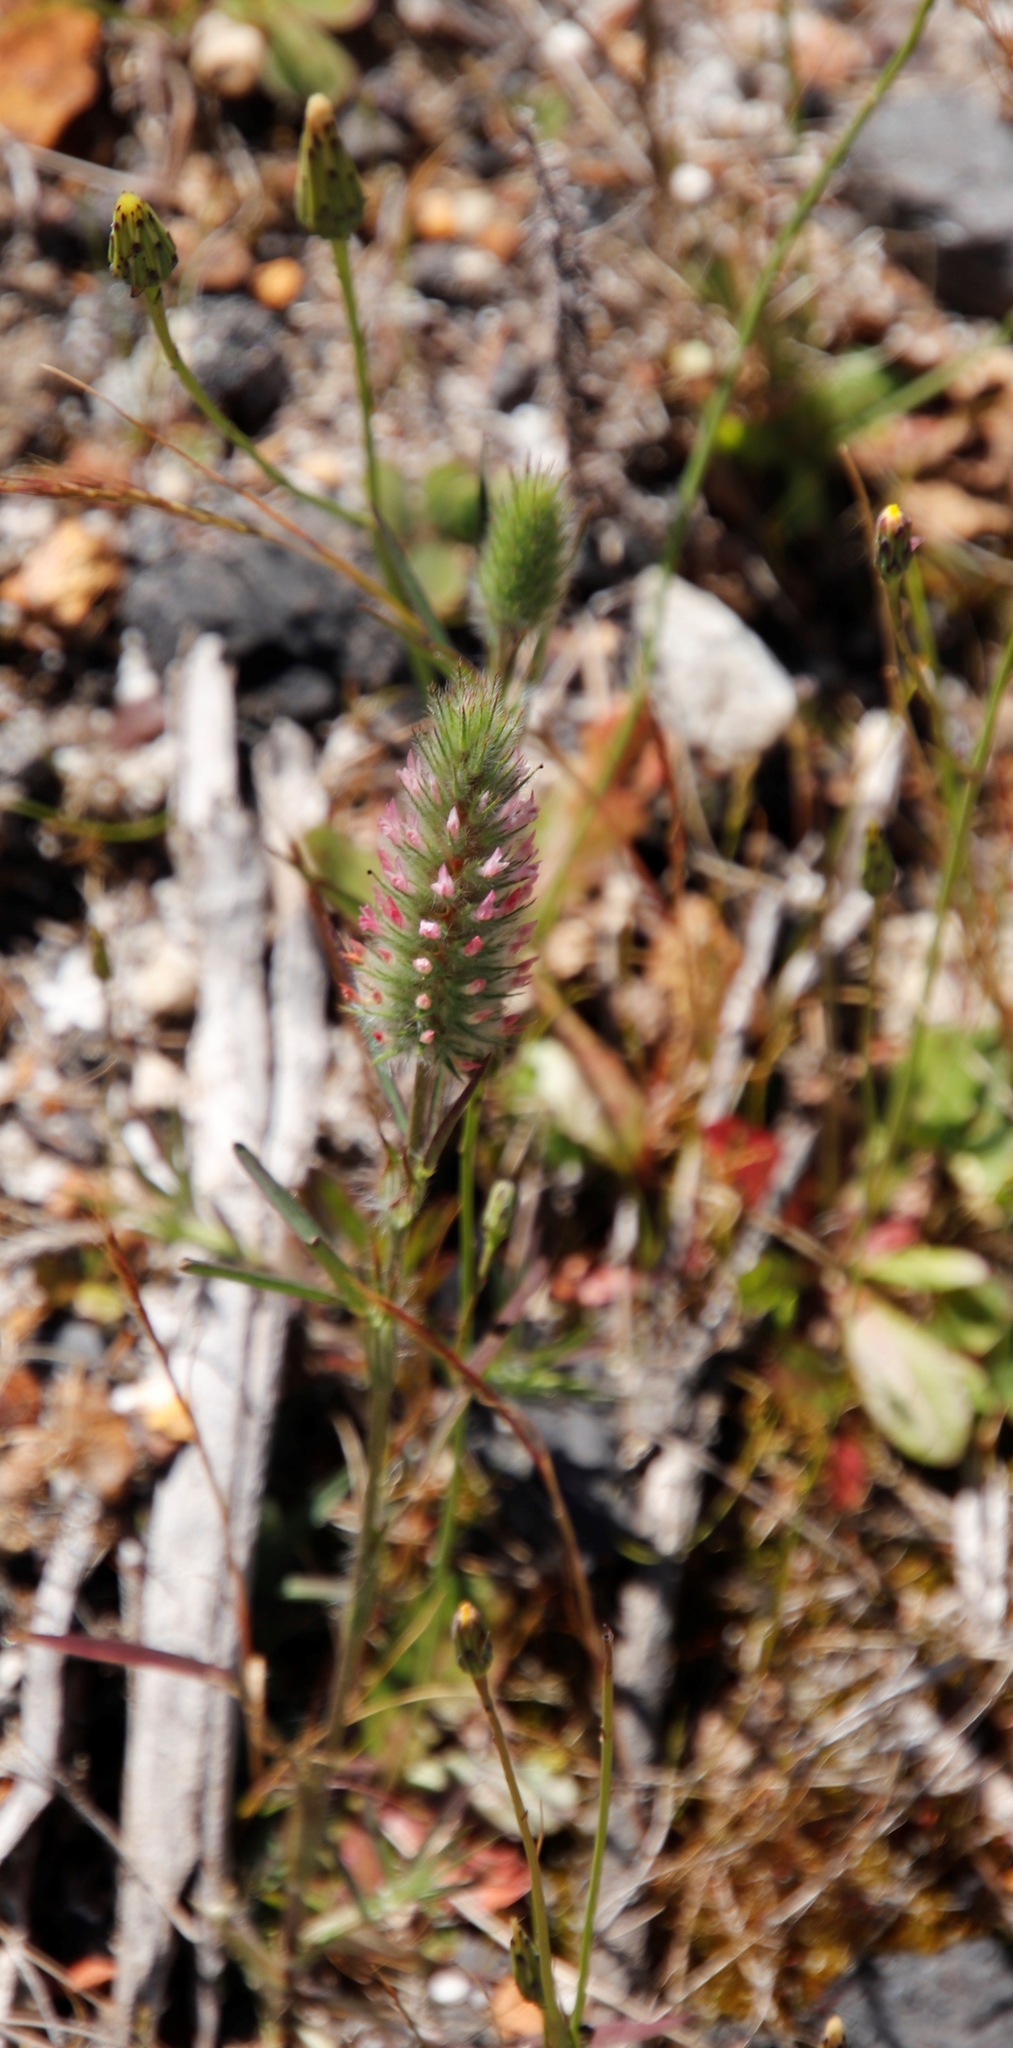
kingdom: Plantae
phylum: Tracheophyta
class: Magnoliopsida
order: Fabales
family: Fabaceae
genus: Trifolium
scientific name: Trifolium angustifolium
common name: Narrow clover
